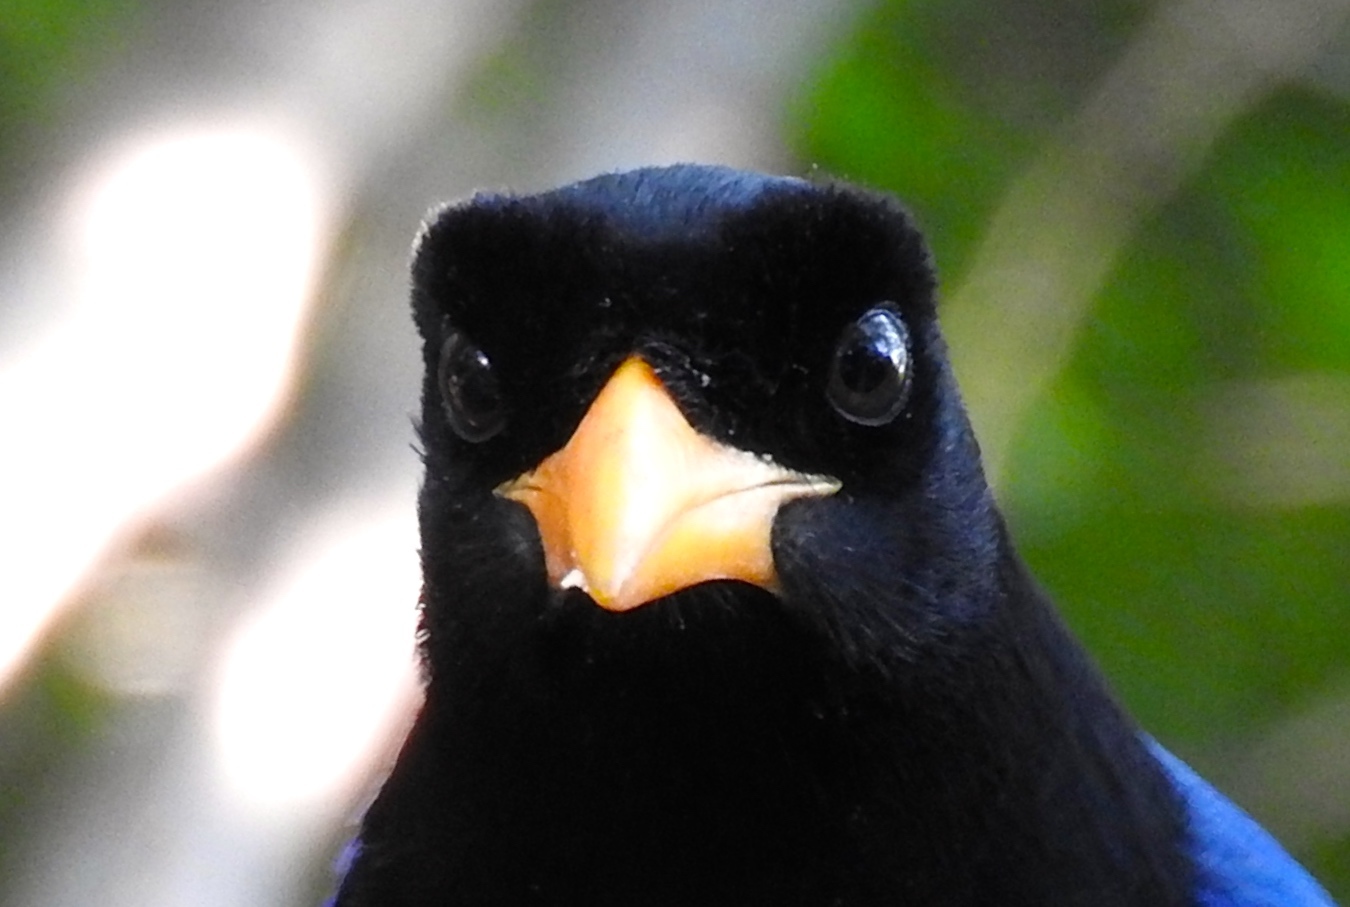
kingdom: Animalia
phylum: Chordata
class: Aves
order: Passeriformes
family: Corvidae
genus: Cyanocorax
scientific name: Cyanocorax beecheii
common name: Purplish-backed jay
